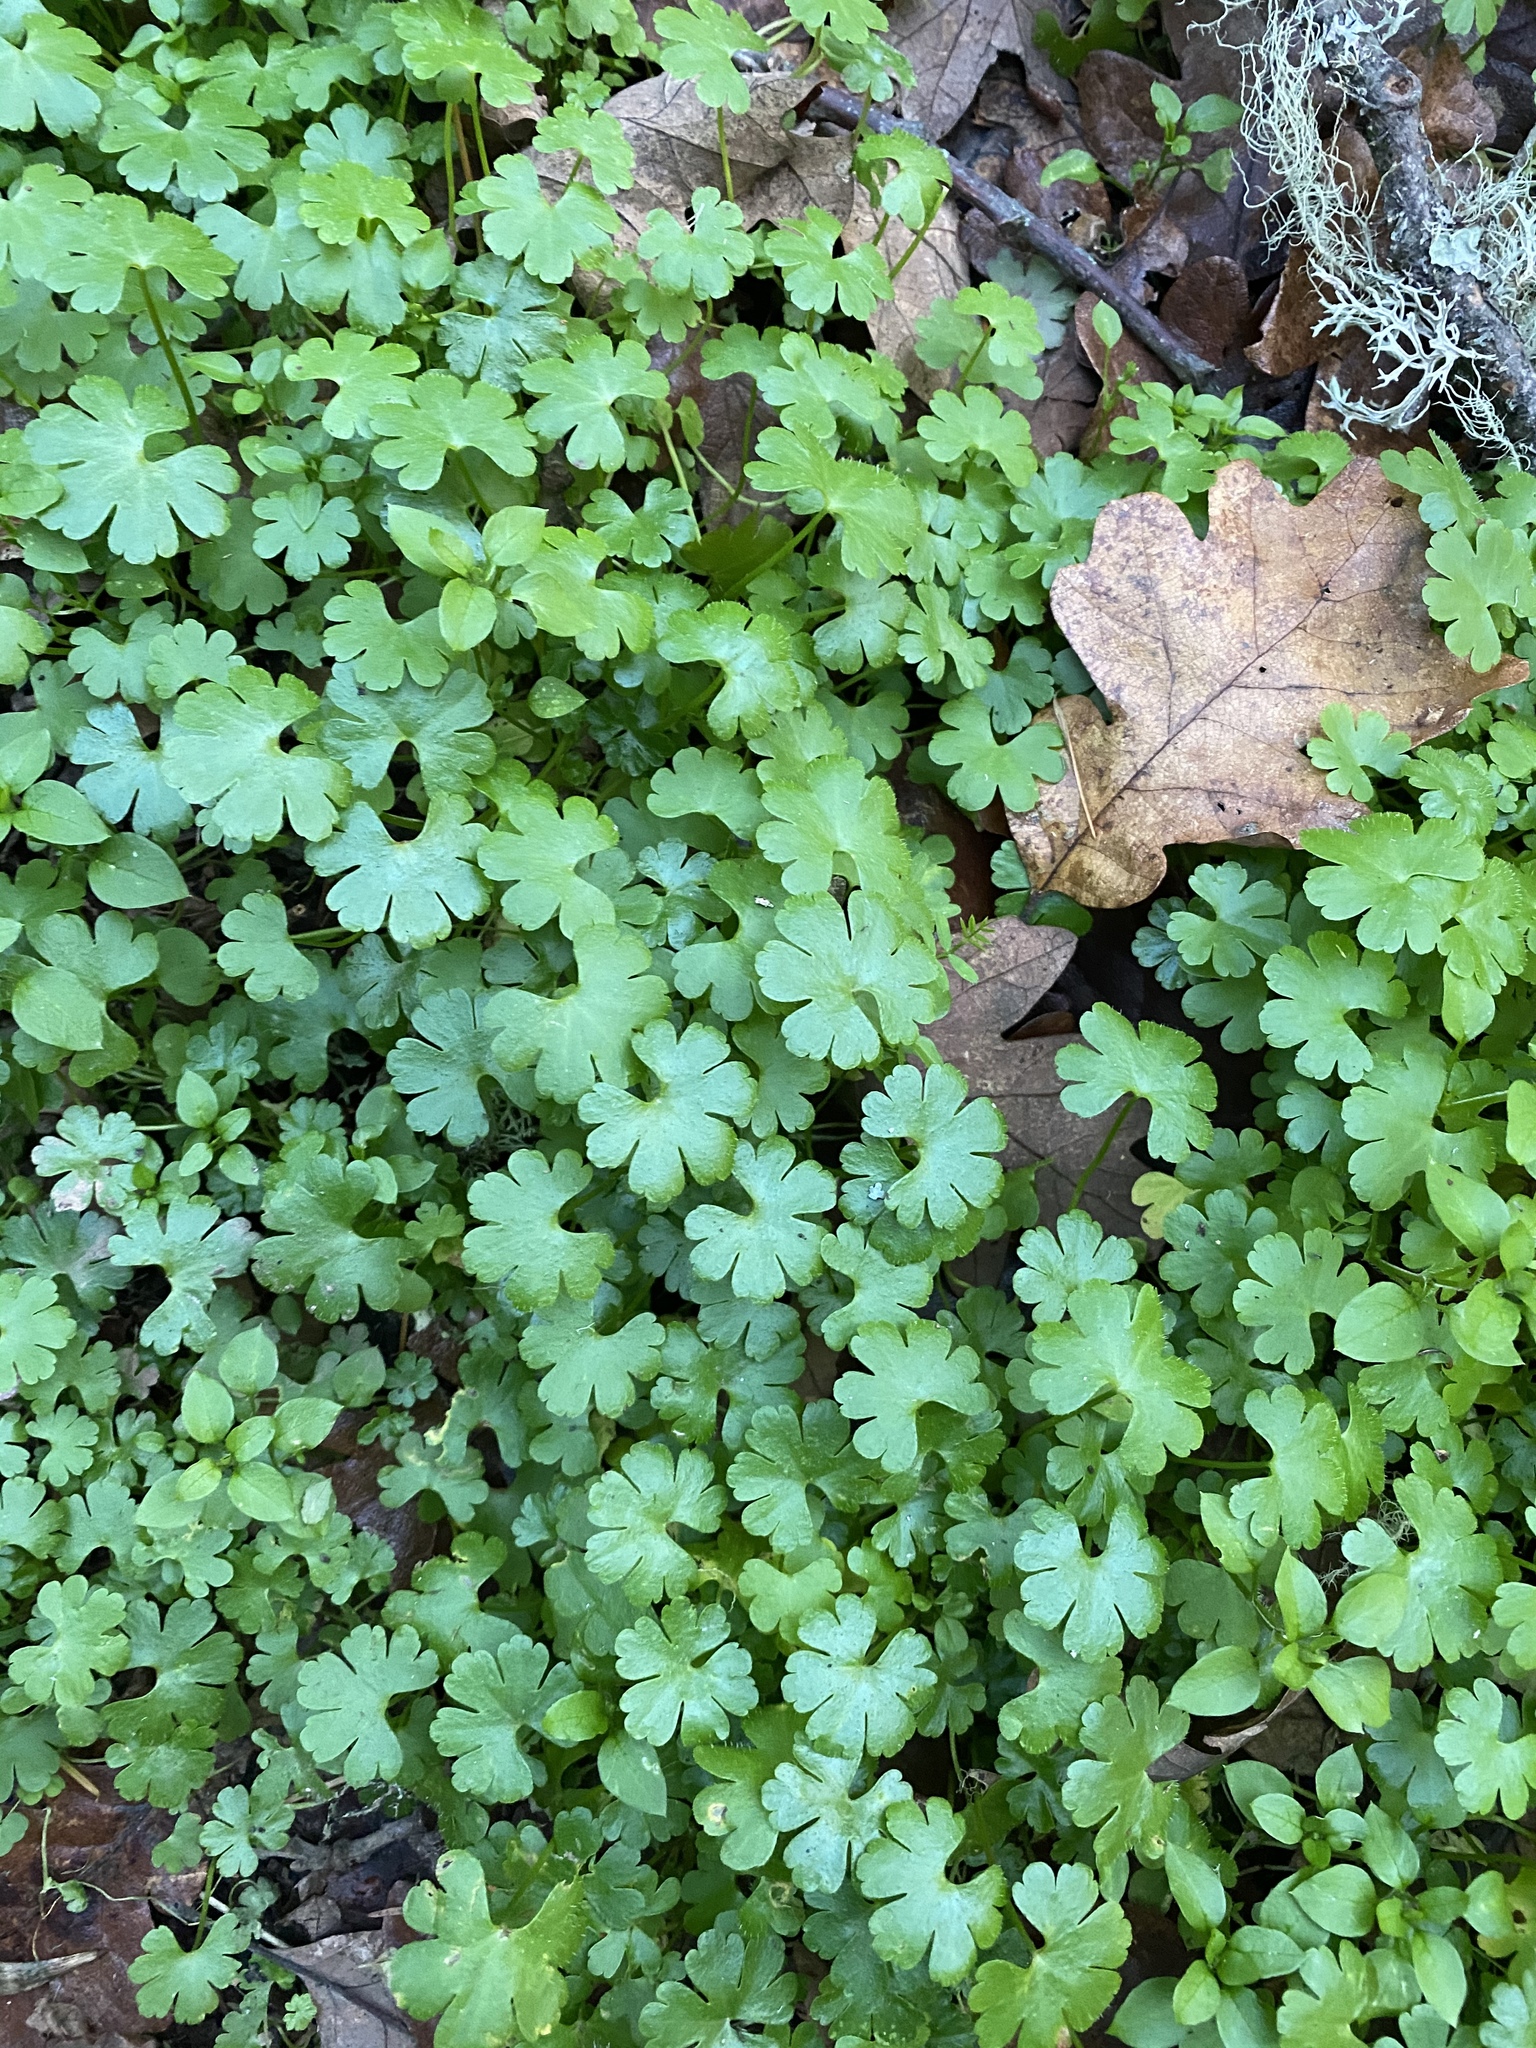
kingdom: Plantae
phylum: Tracheophyta
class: Magnoliopsida
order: Geraniales
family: Geraniaceae
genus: Geranium
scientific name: Geranium lucidum
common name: Shining crane's-bill
